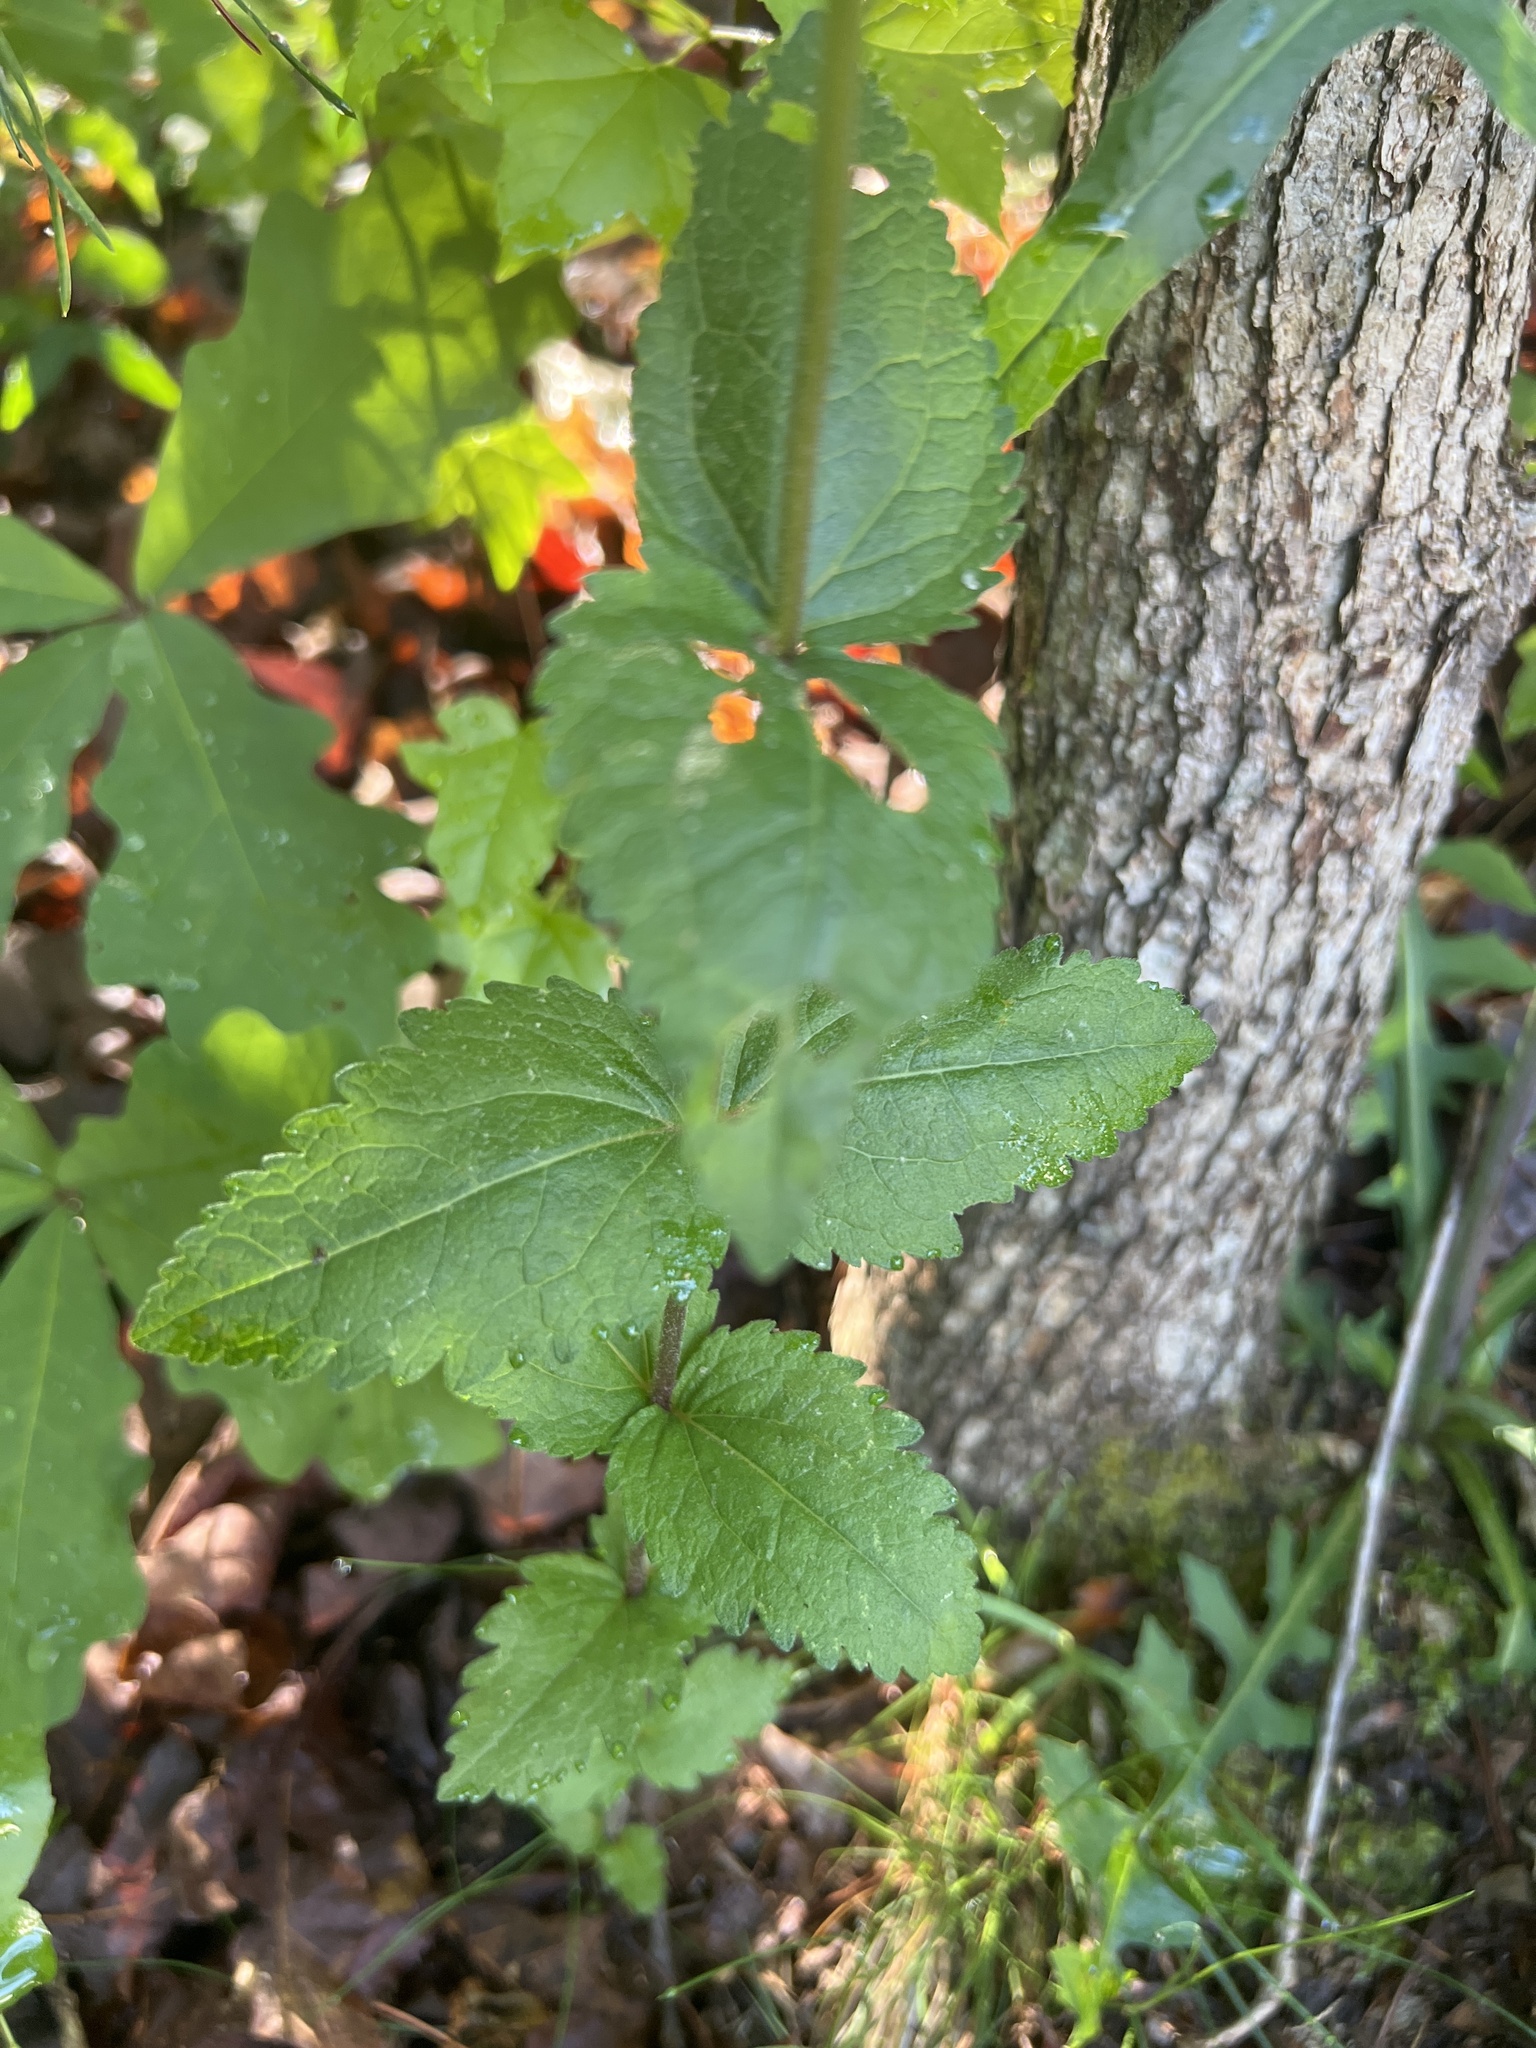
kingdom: Plantae
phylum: Tracheophyta
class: Magnoliopsida
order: Asterales
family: Asteraceae
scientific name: Asteraceae
